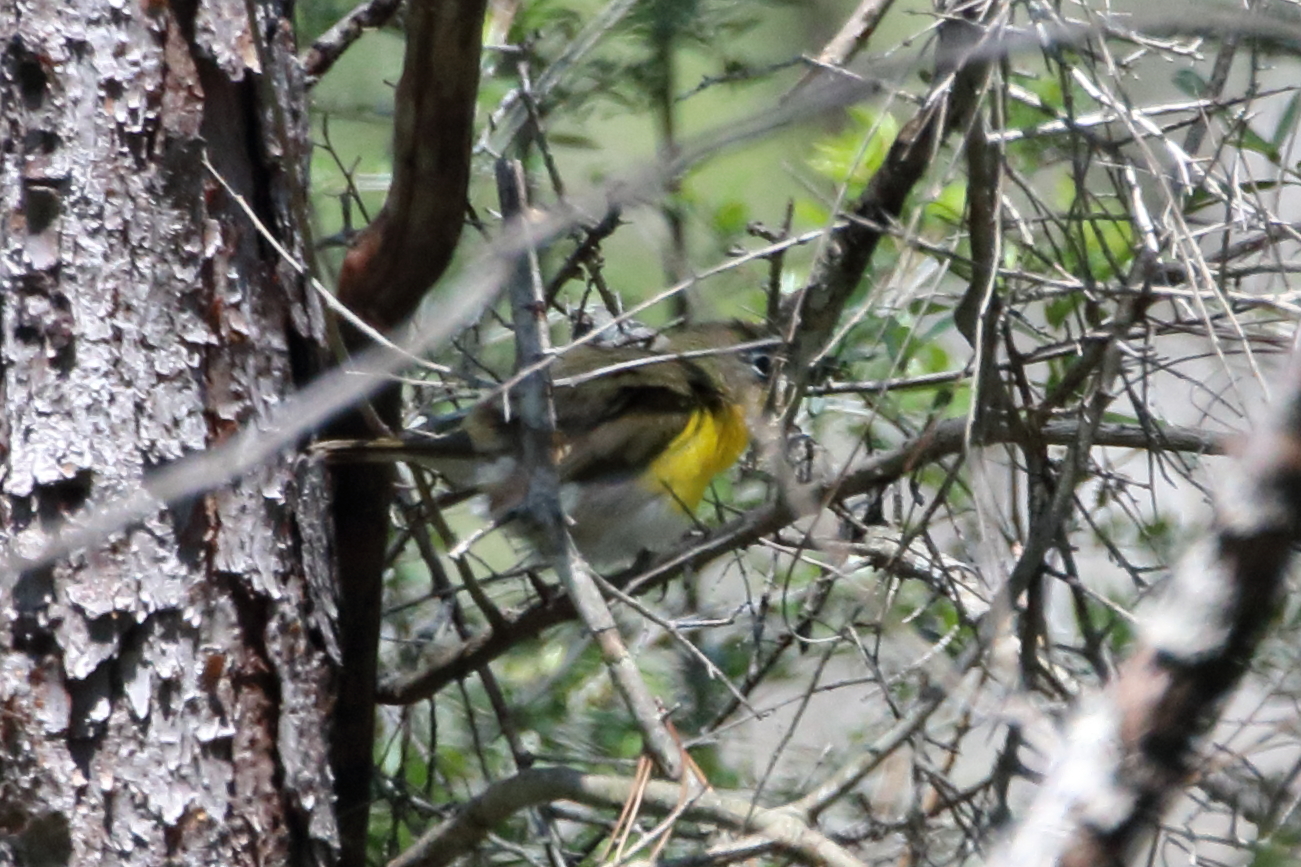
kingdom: Animalia
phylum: Chordata
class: Aves
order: Passeriformes
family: Parulidae
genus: Icteria
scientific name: Icteria virens
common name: Yellow-breasted chat
